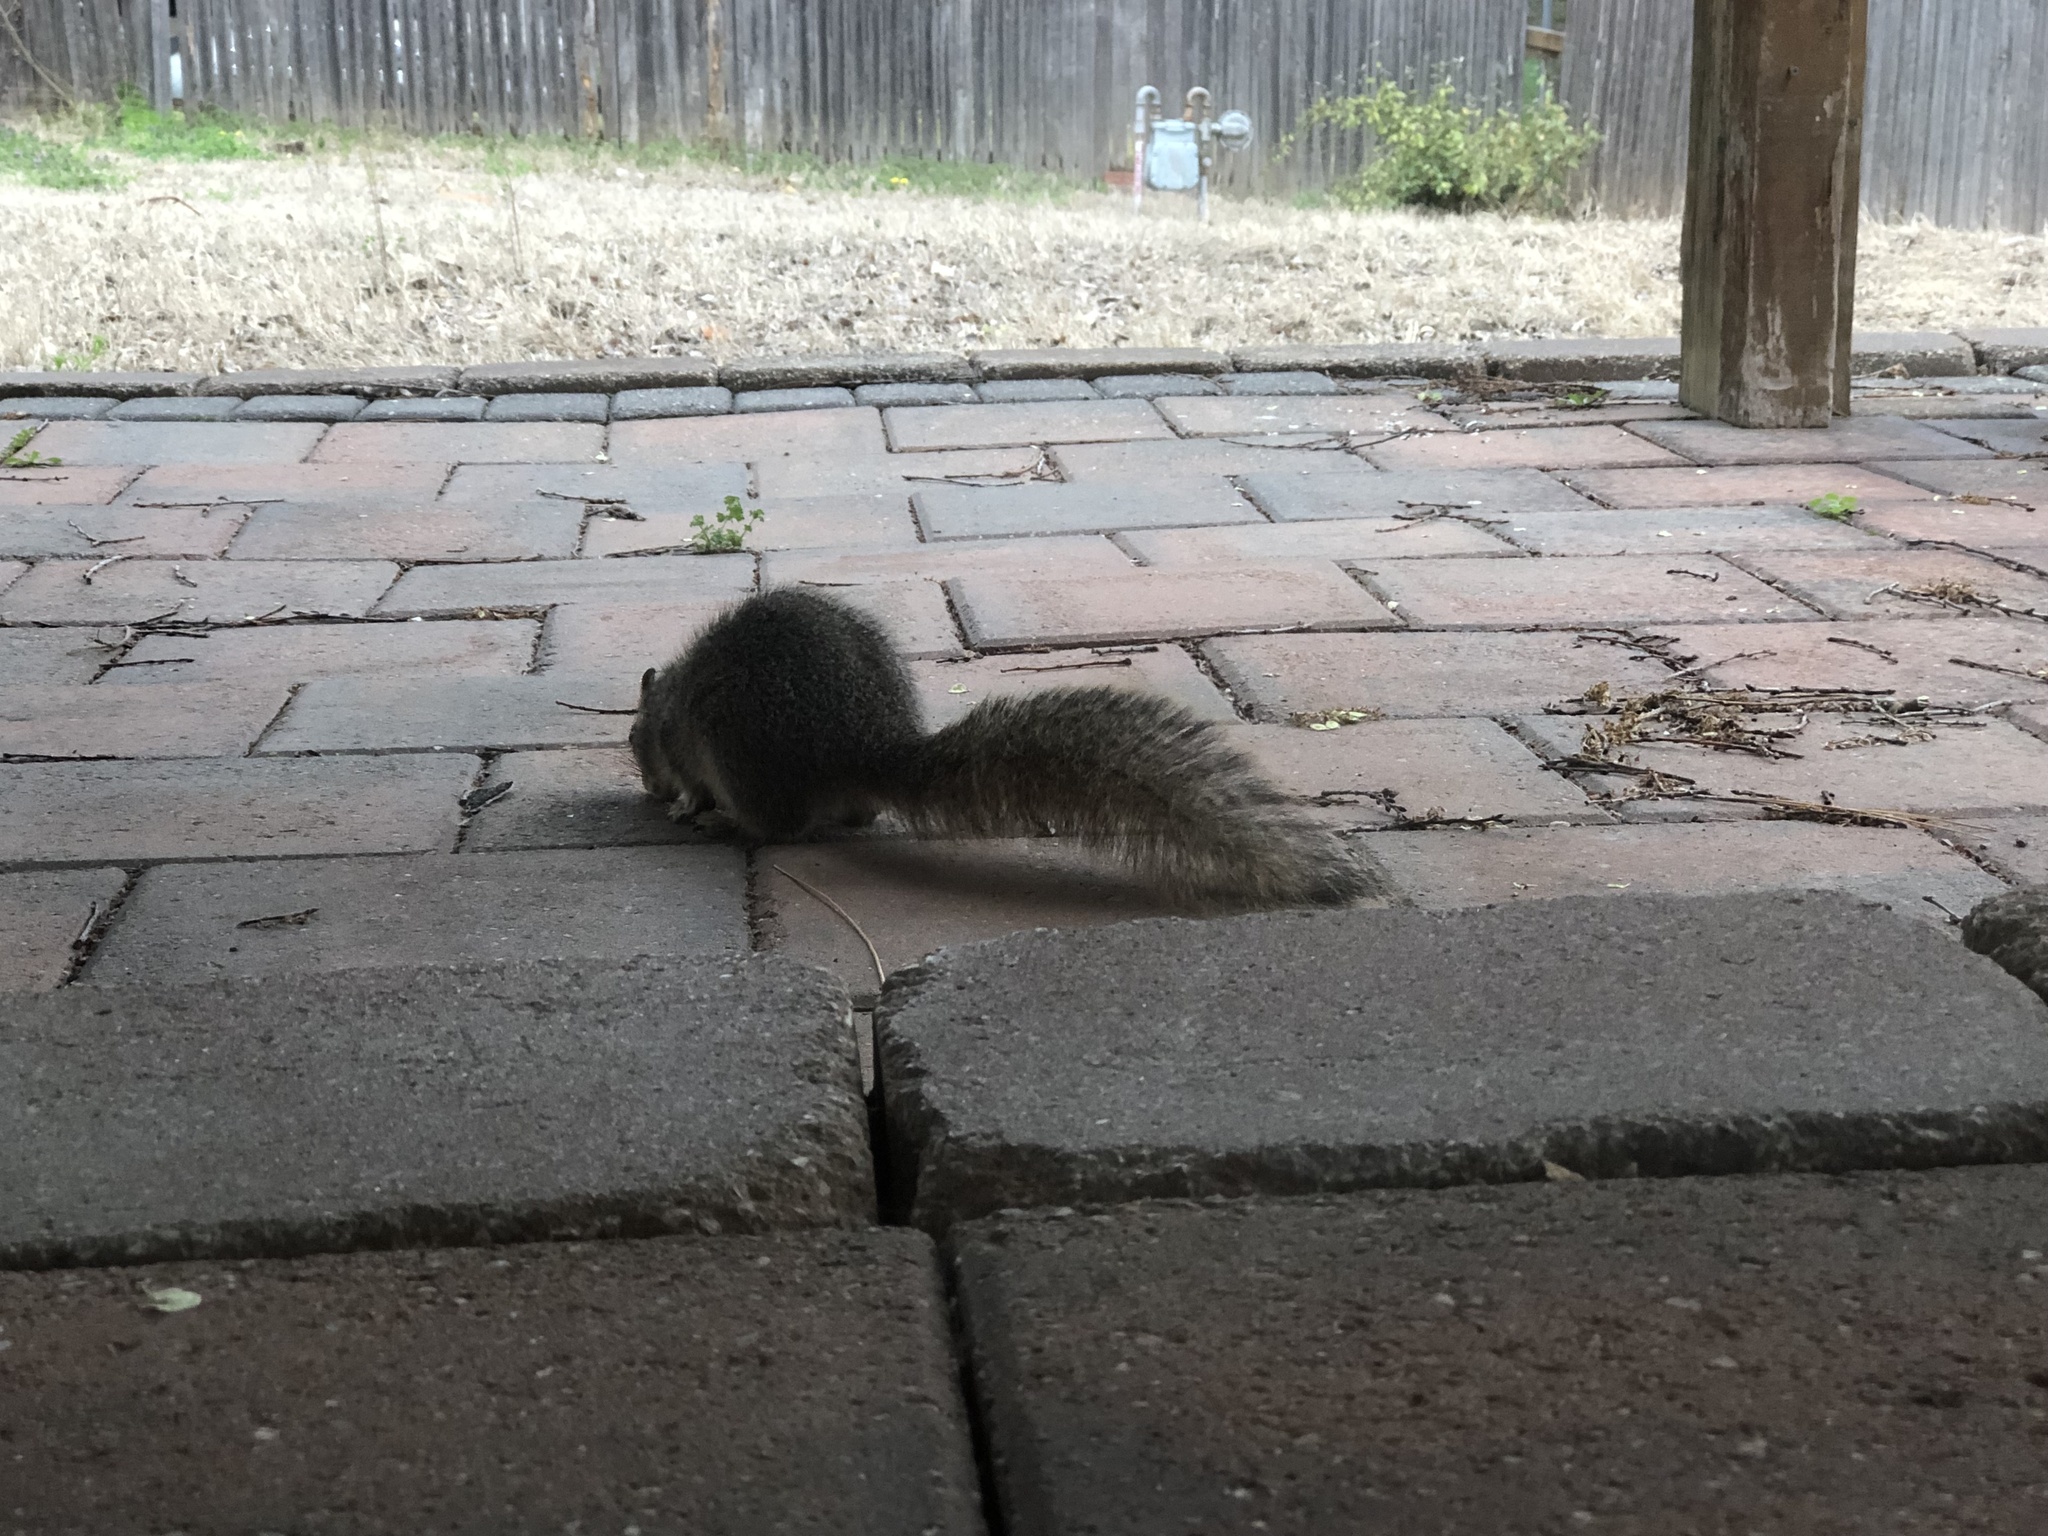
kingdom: Animalia
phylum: Chordata
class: Mammalia
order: Rodentia
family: Sciuridae
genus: Sciurus
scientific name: Sciurus niger
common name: Fox squirrel
